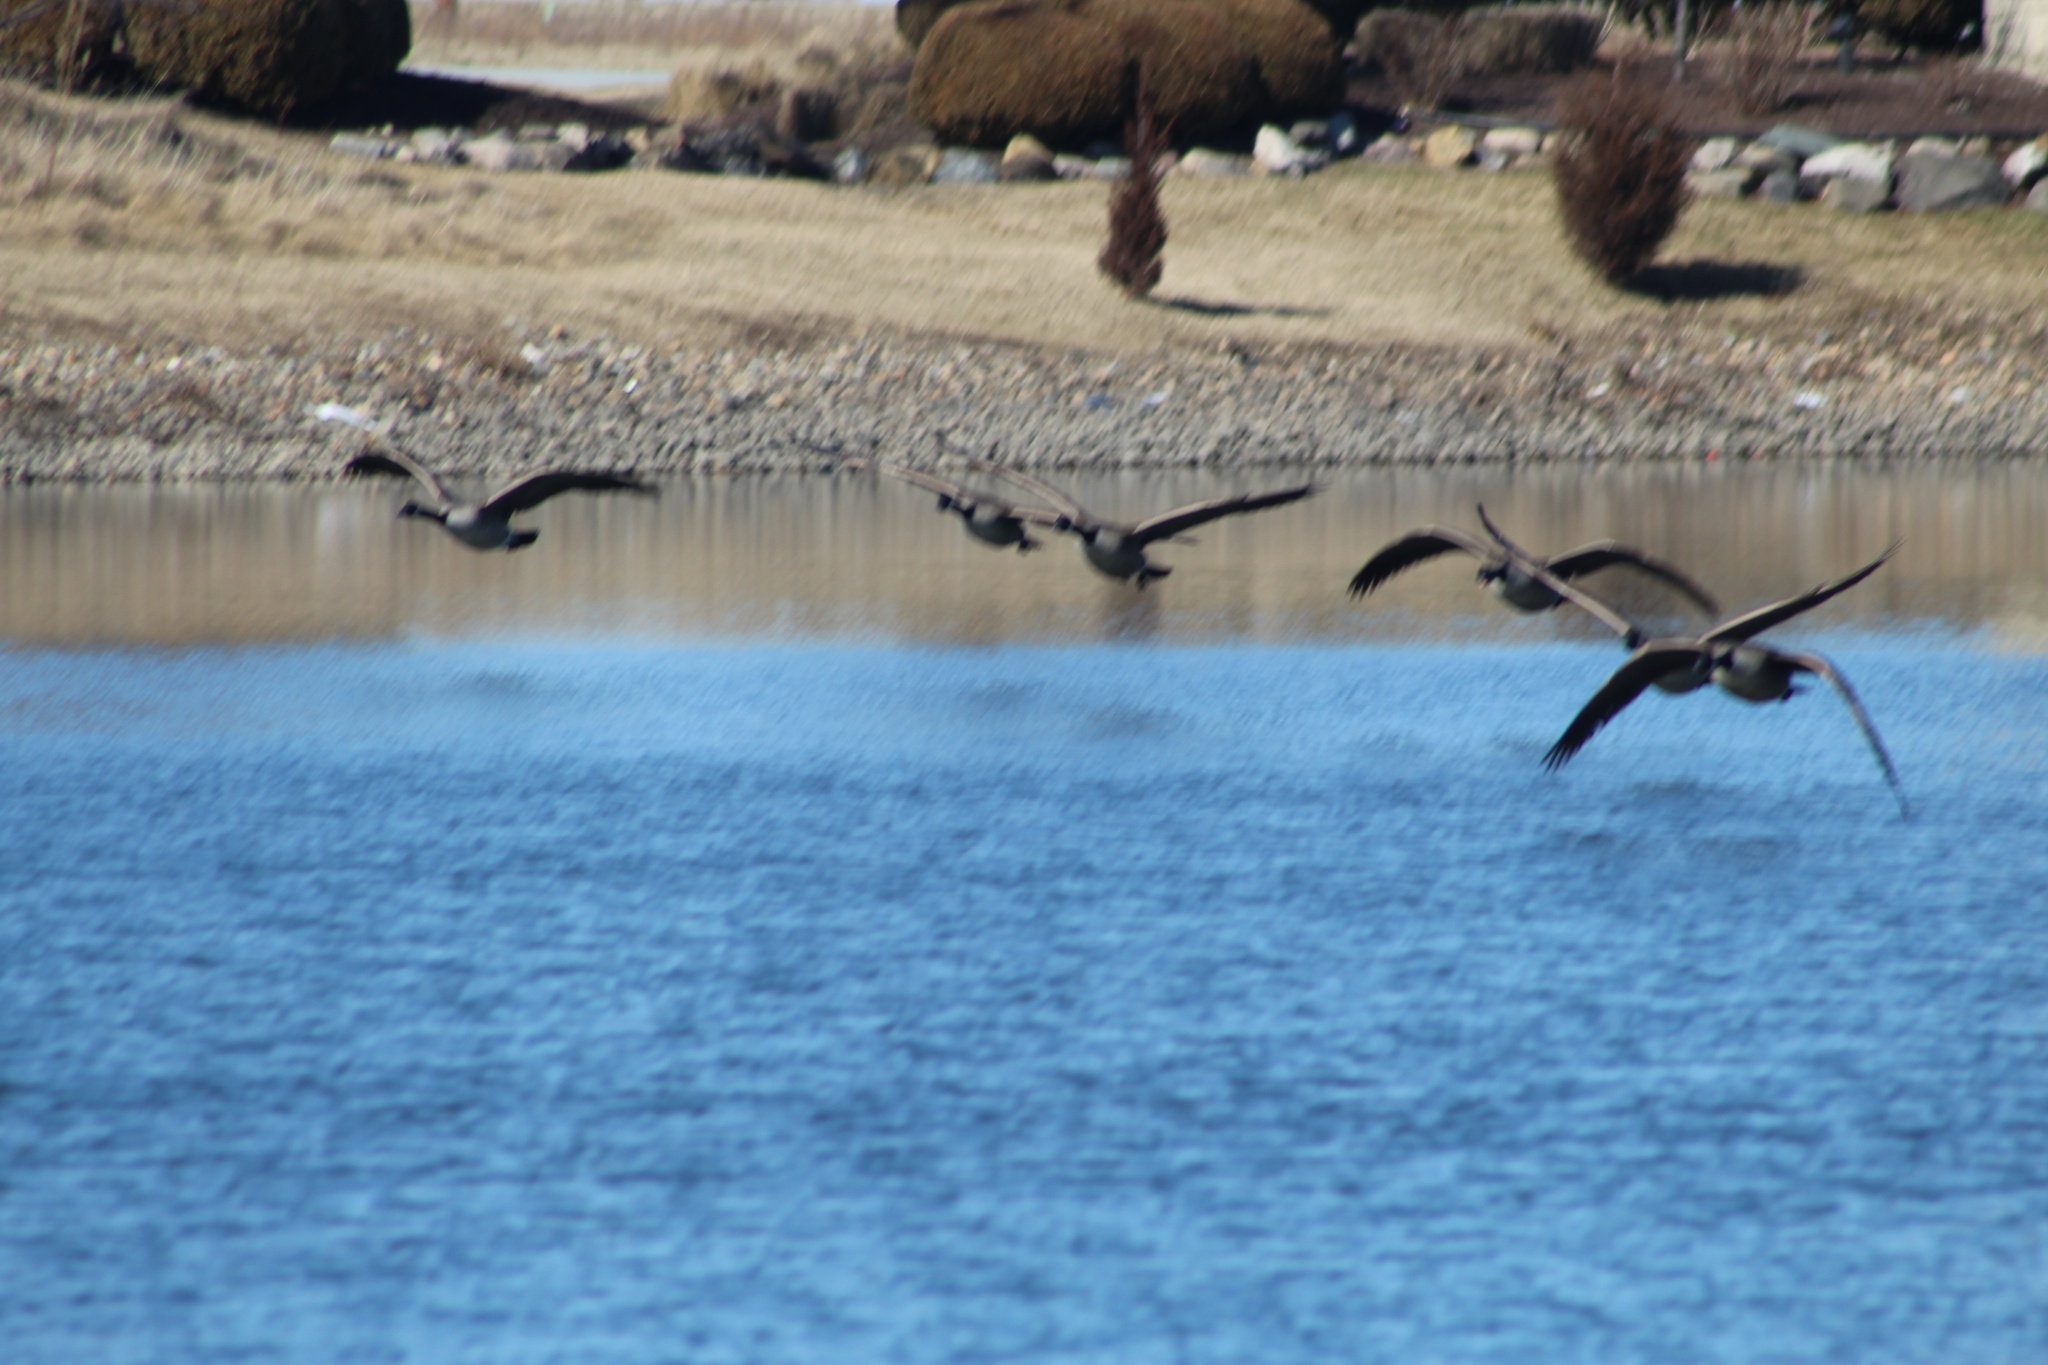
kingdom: Animalia
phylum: Chordata
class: Aves
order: Anseriformes
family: Anatidae
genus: Branta
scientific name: Branta canadensis
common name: Canada goose
